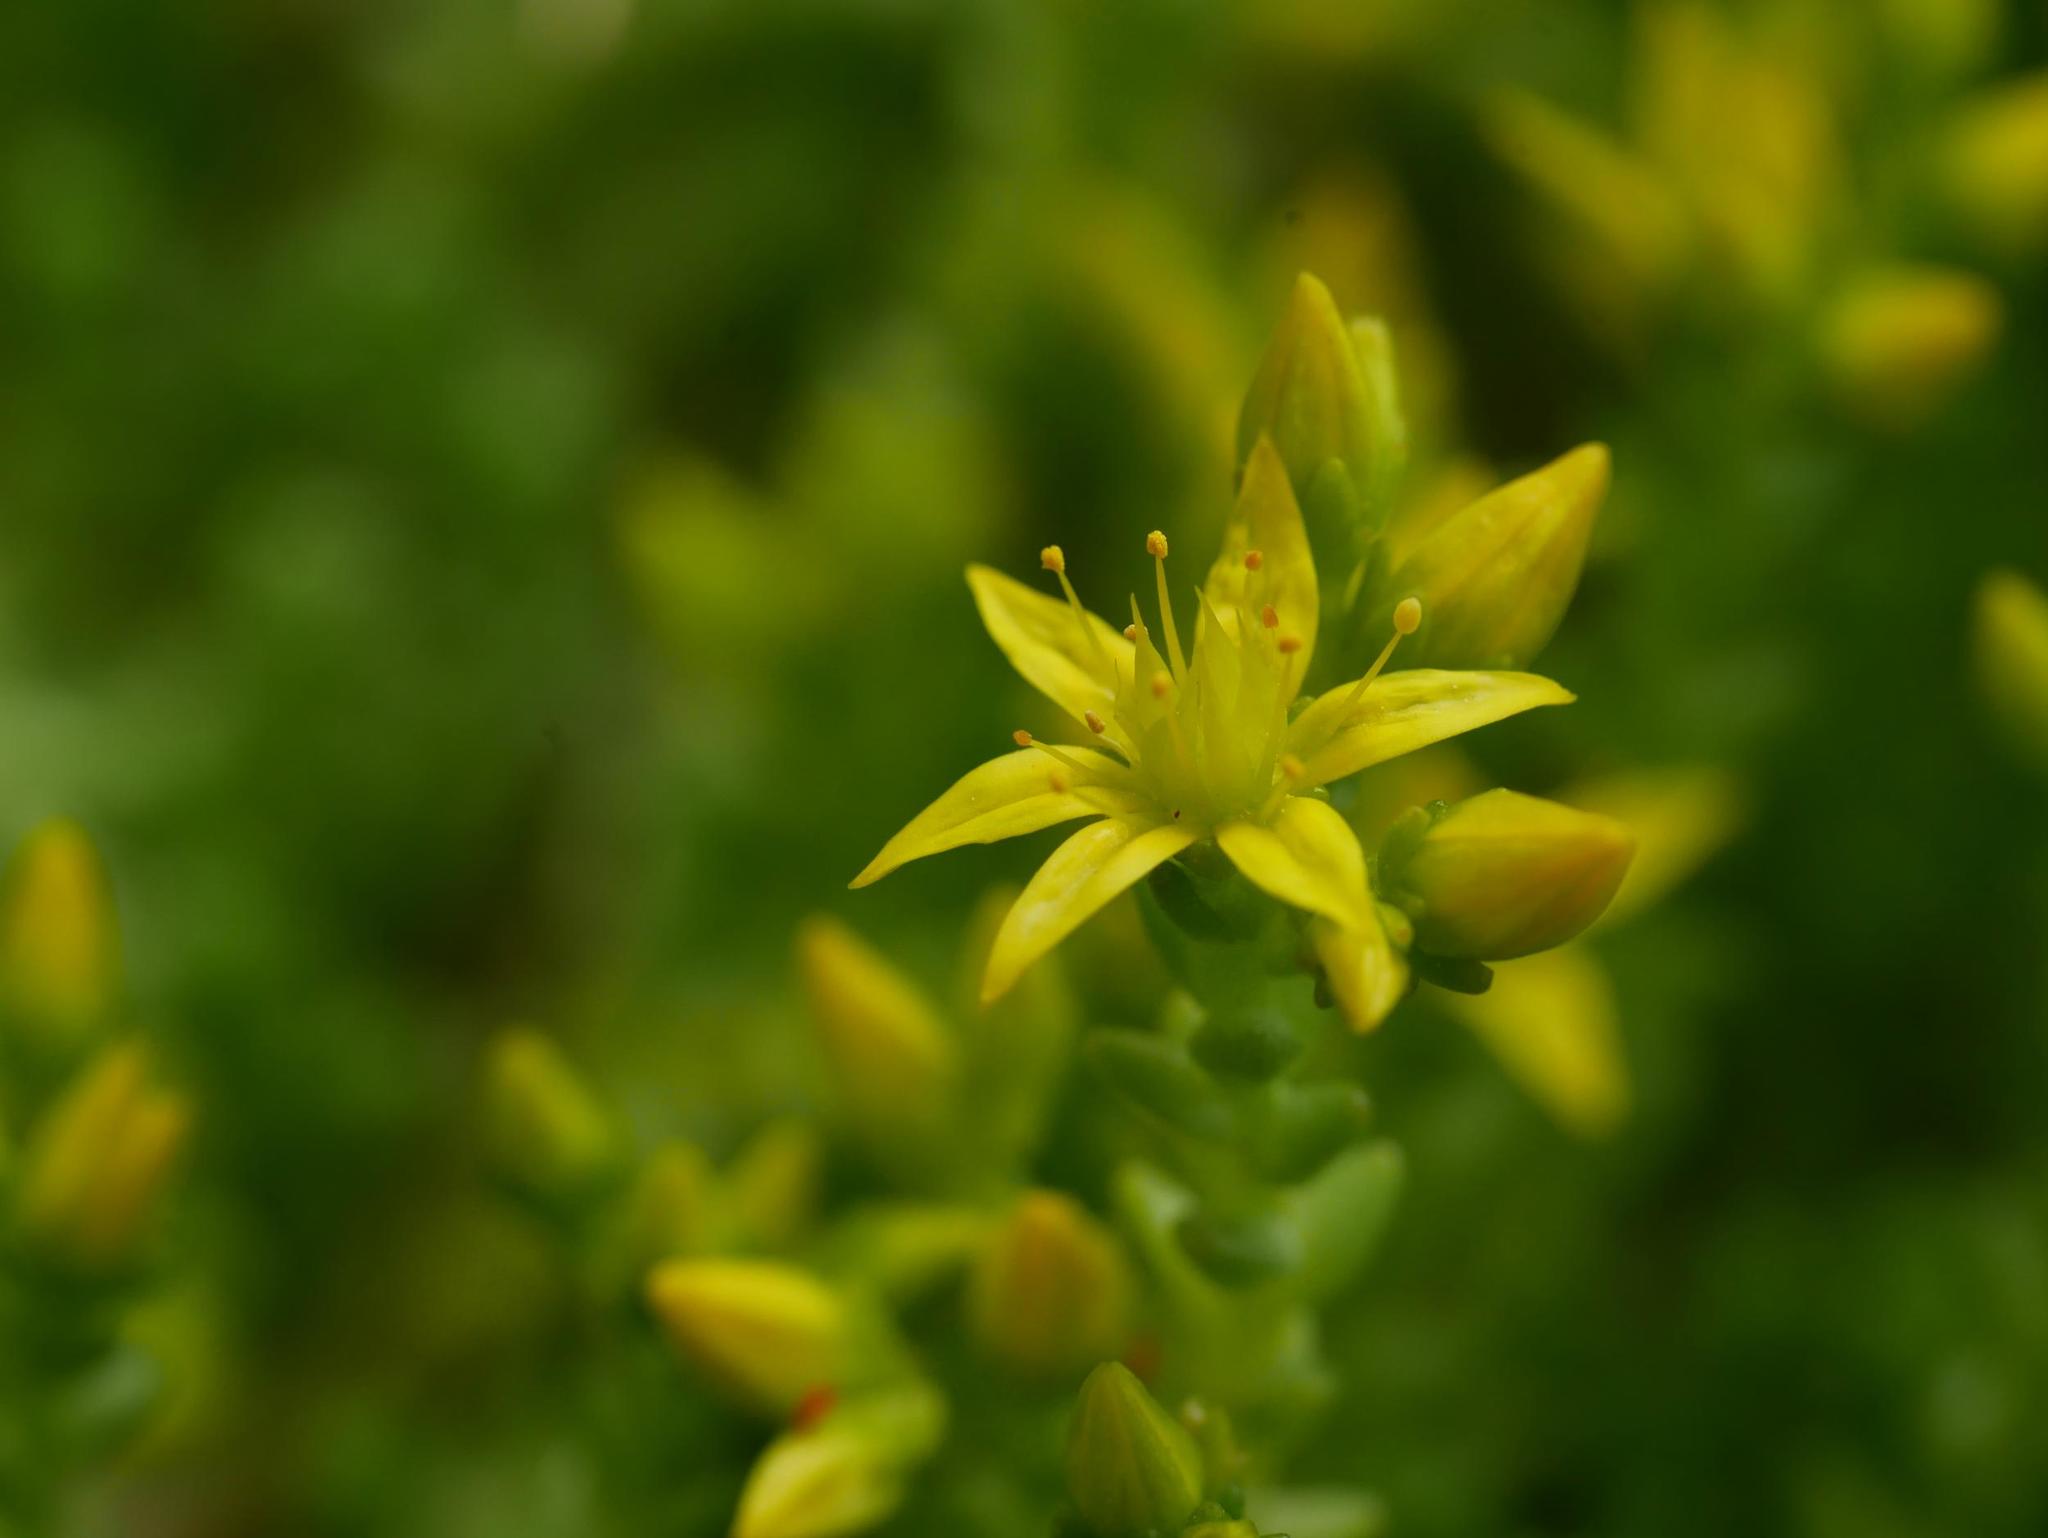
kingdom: Plantae
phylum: Tracheophyta
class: Magnoliopsida
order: Saxifragales
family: Crassulaceae
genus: Sedum
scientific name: Sedum acre
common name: Biting stonecrop
